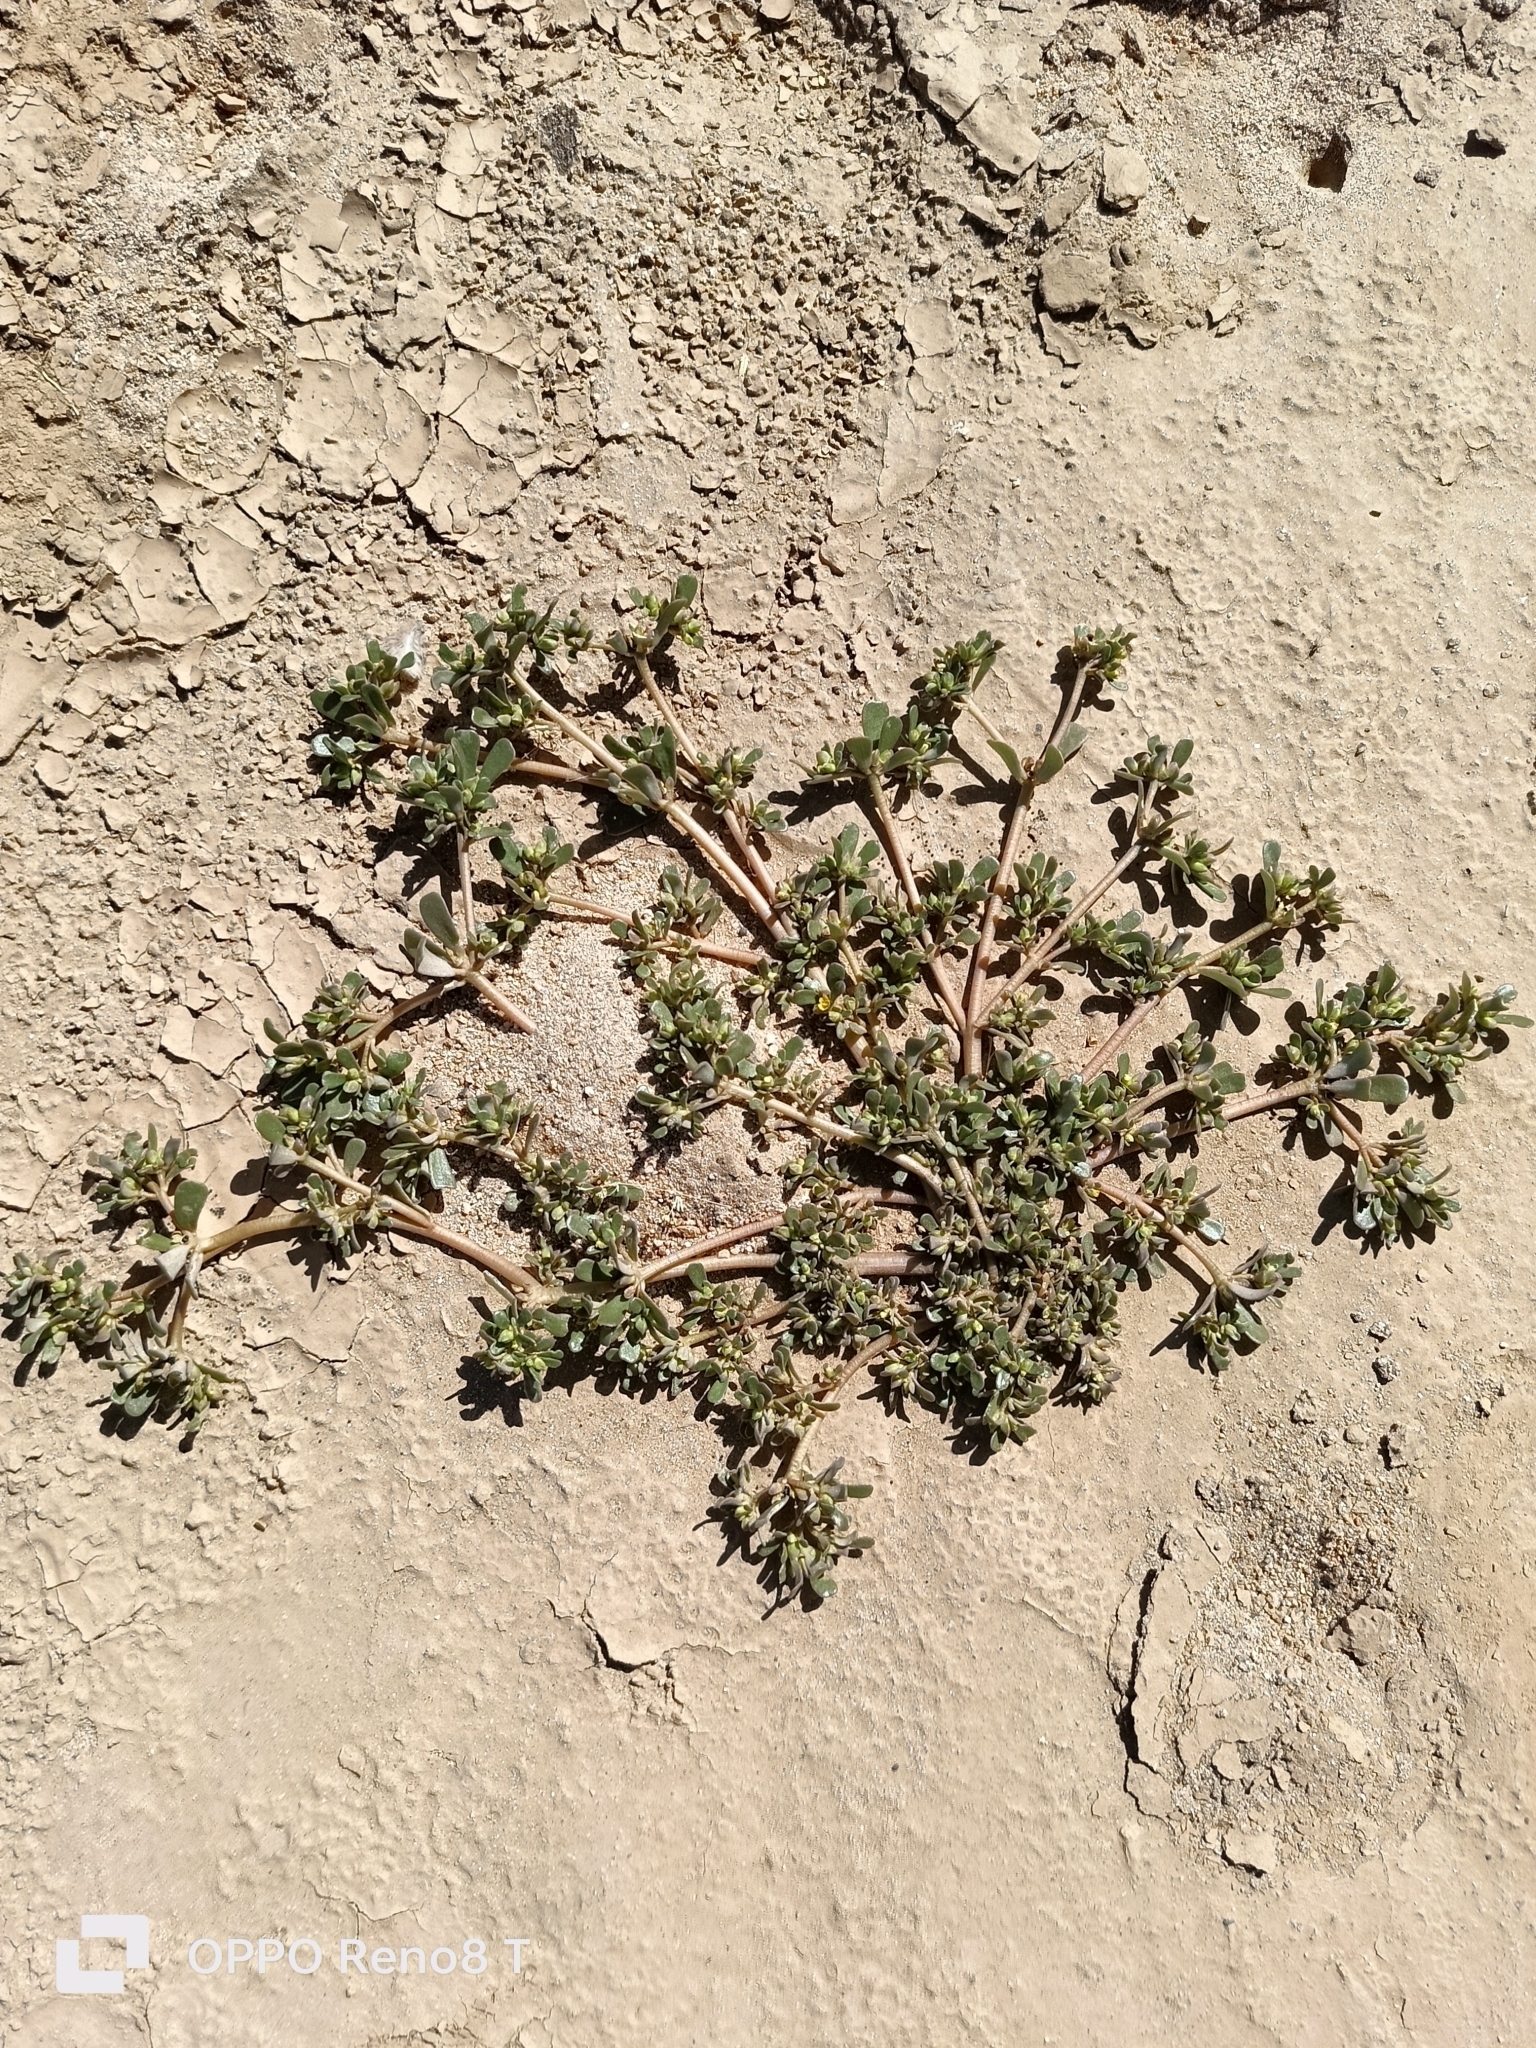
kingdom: Plantae
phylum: Tracheophyta
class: Magnoliopsida
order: Caryophyllales
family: Portulacaceae
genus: Portulaca
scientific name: Portulaca oleracea
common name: Common purslane
